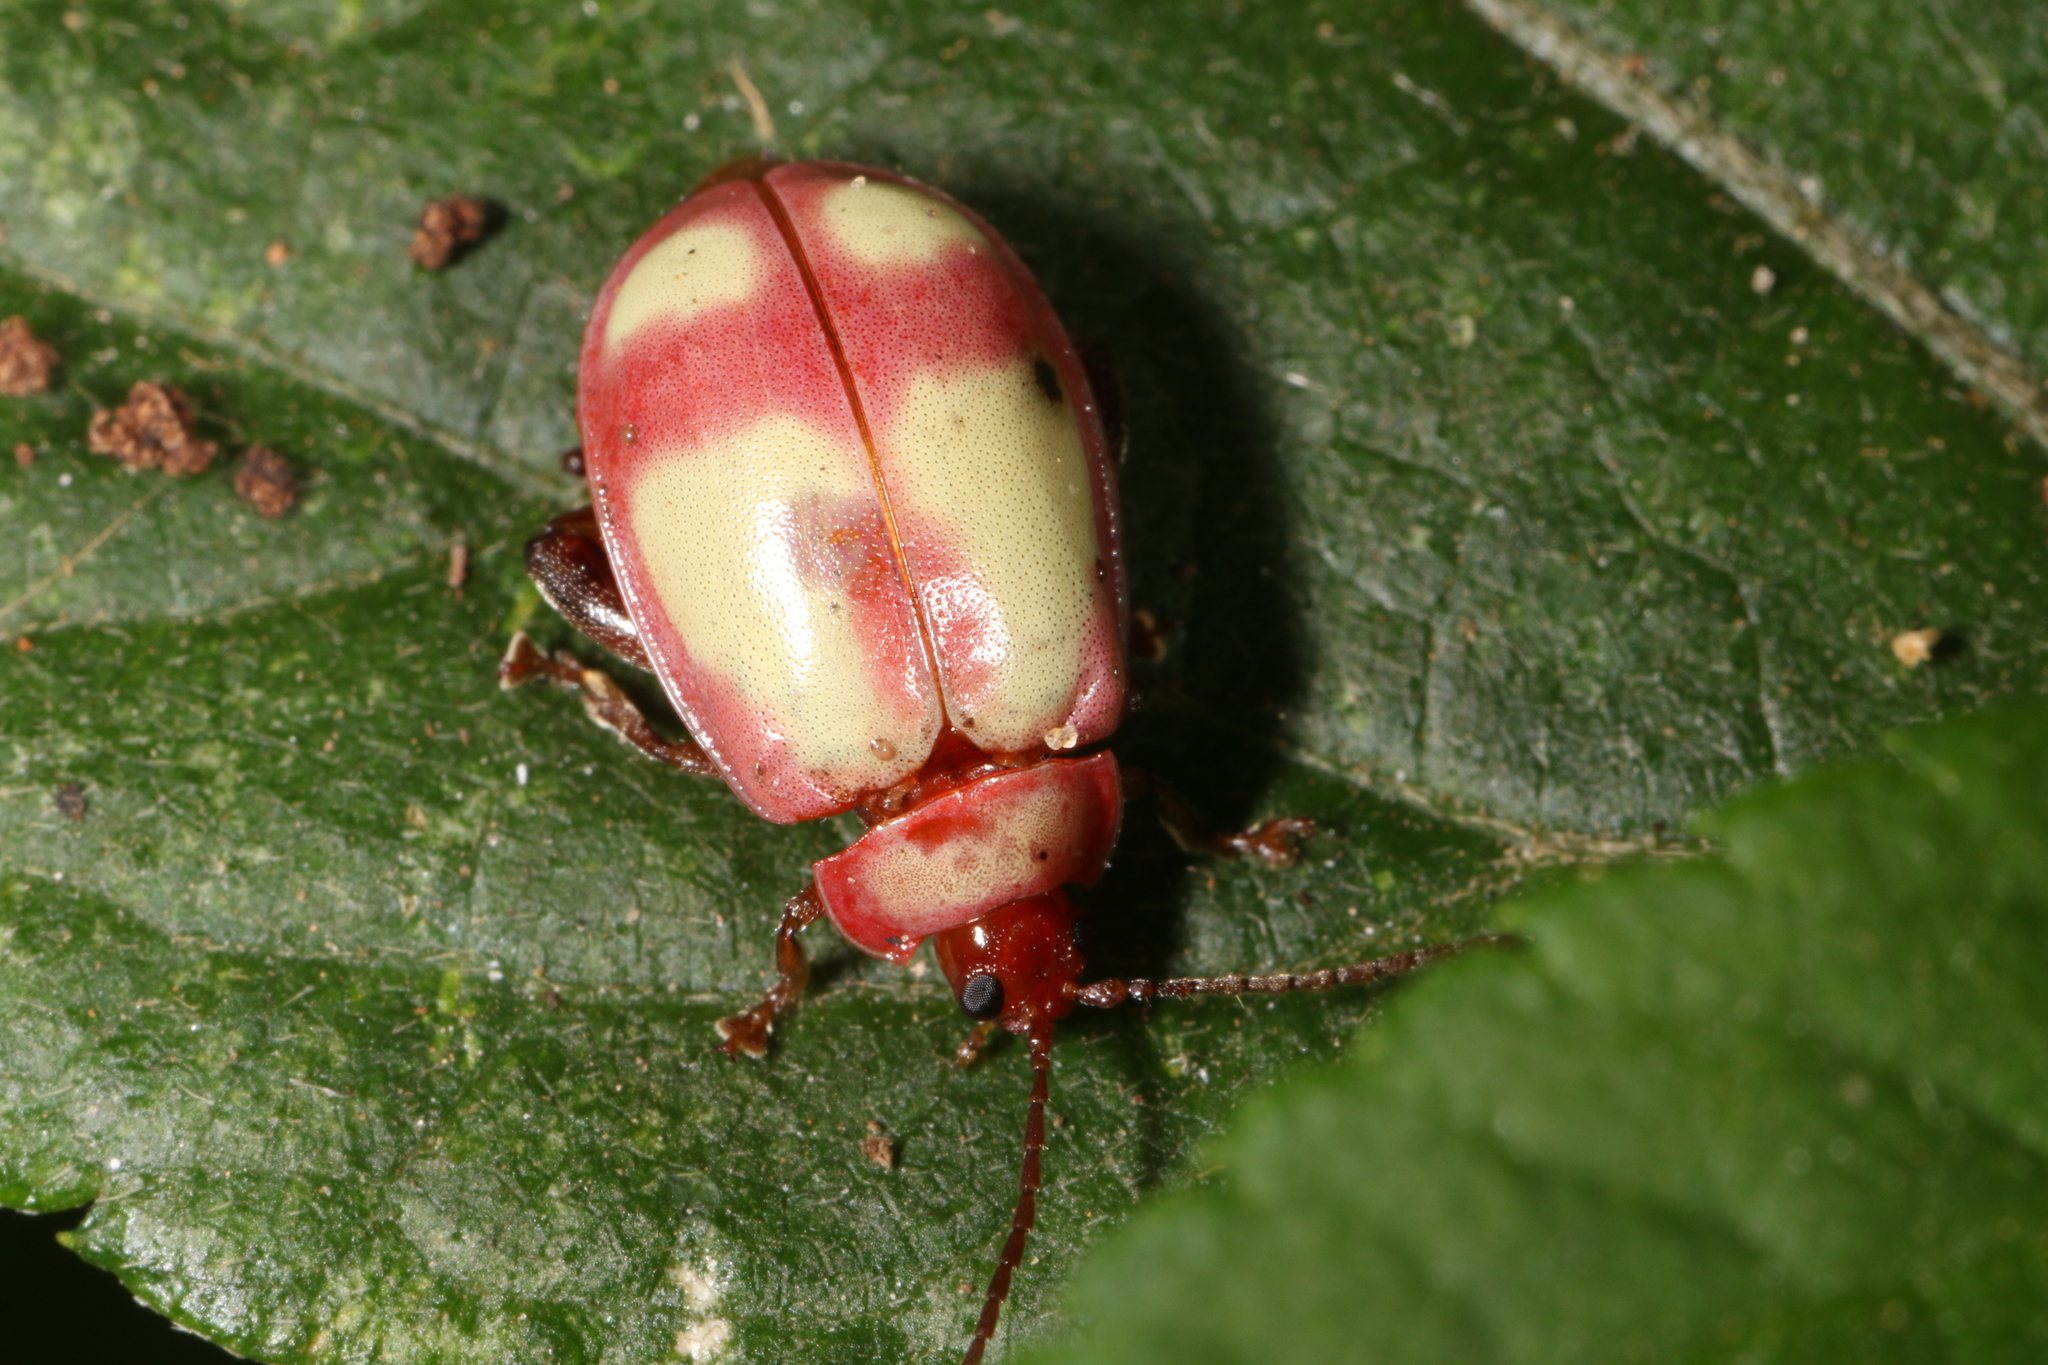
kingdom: Animalia
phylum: Arthropoda
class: Insecta
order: Coleoptera
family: Chrysomelidae
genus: Wanderbiltiana
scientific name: Wanderbiltiana
